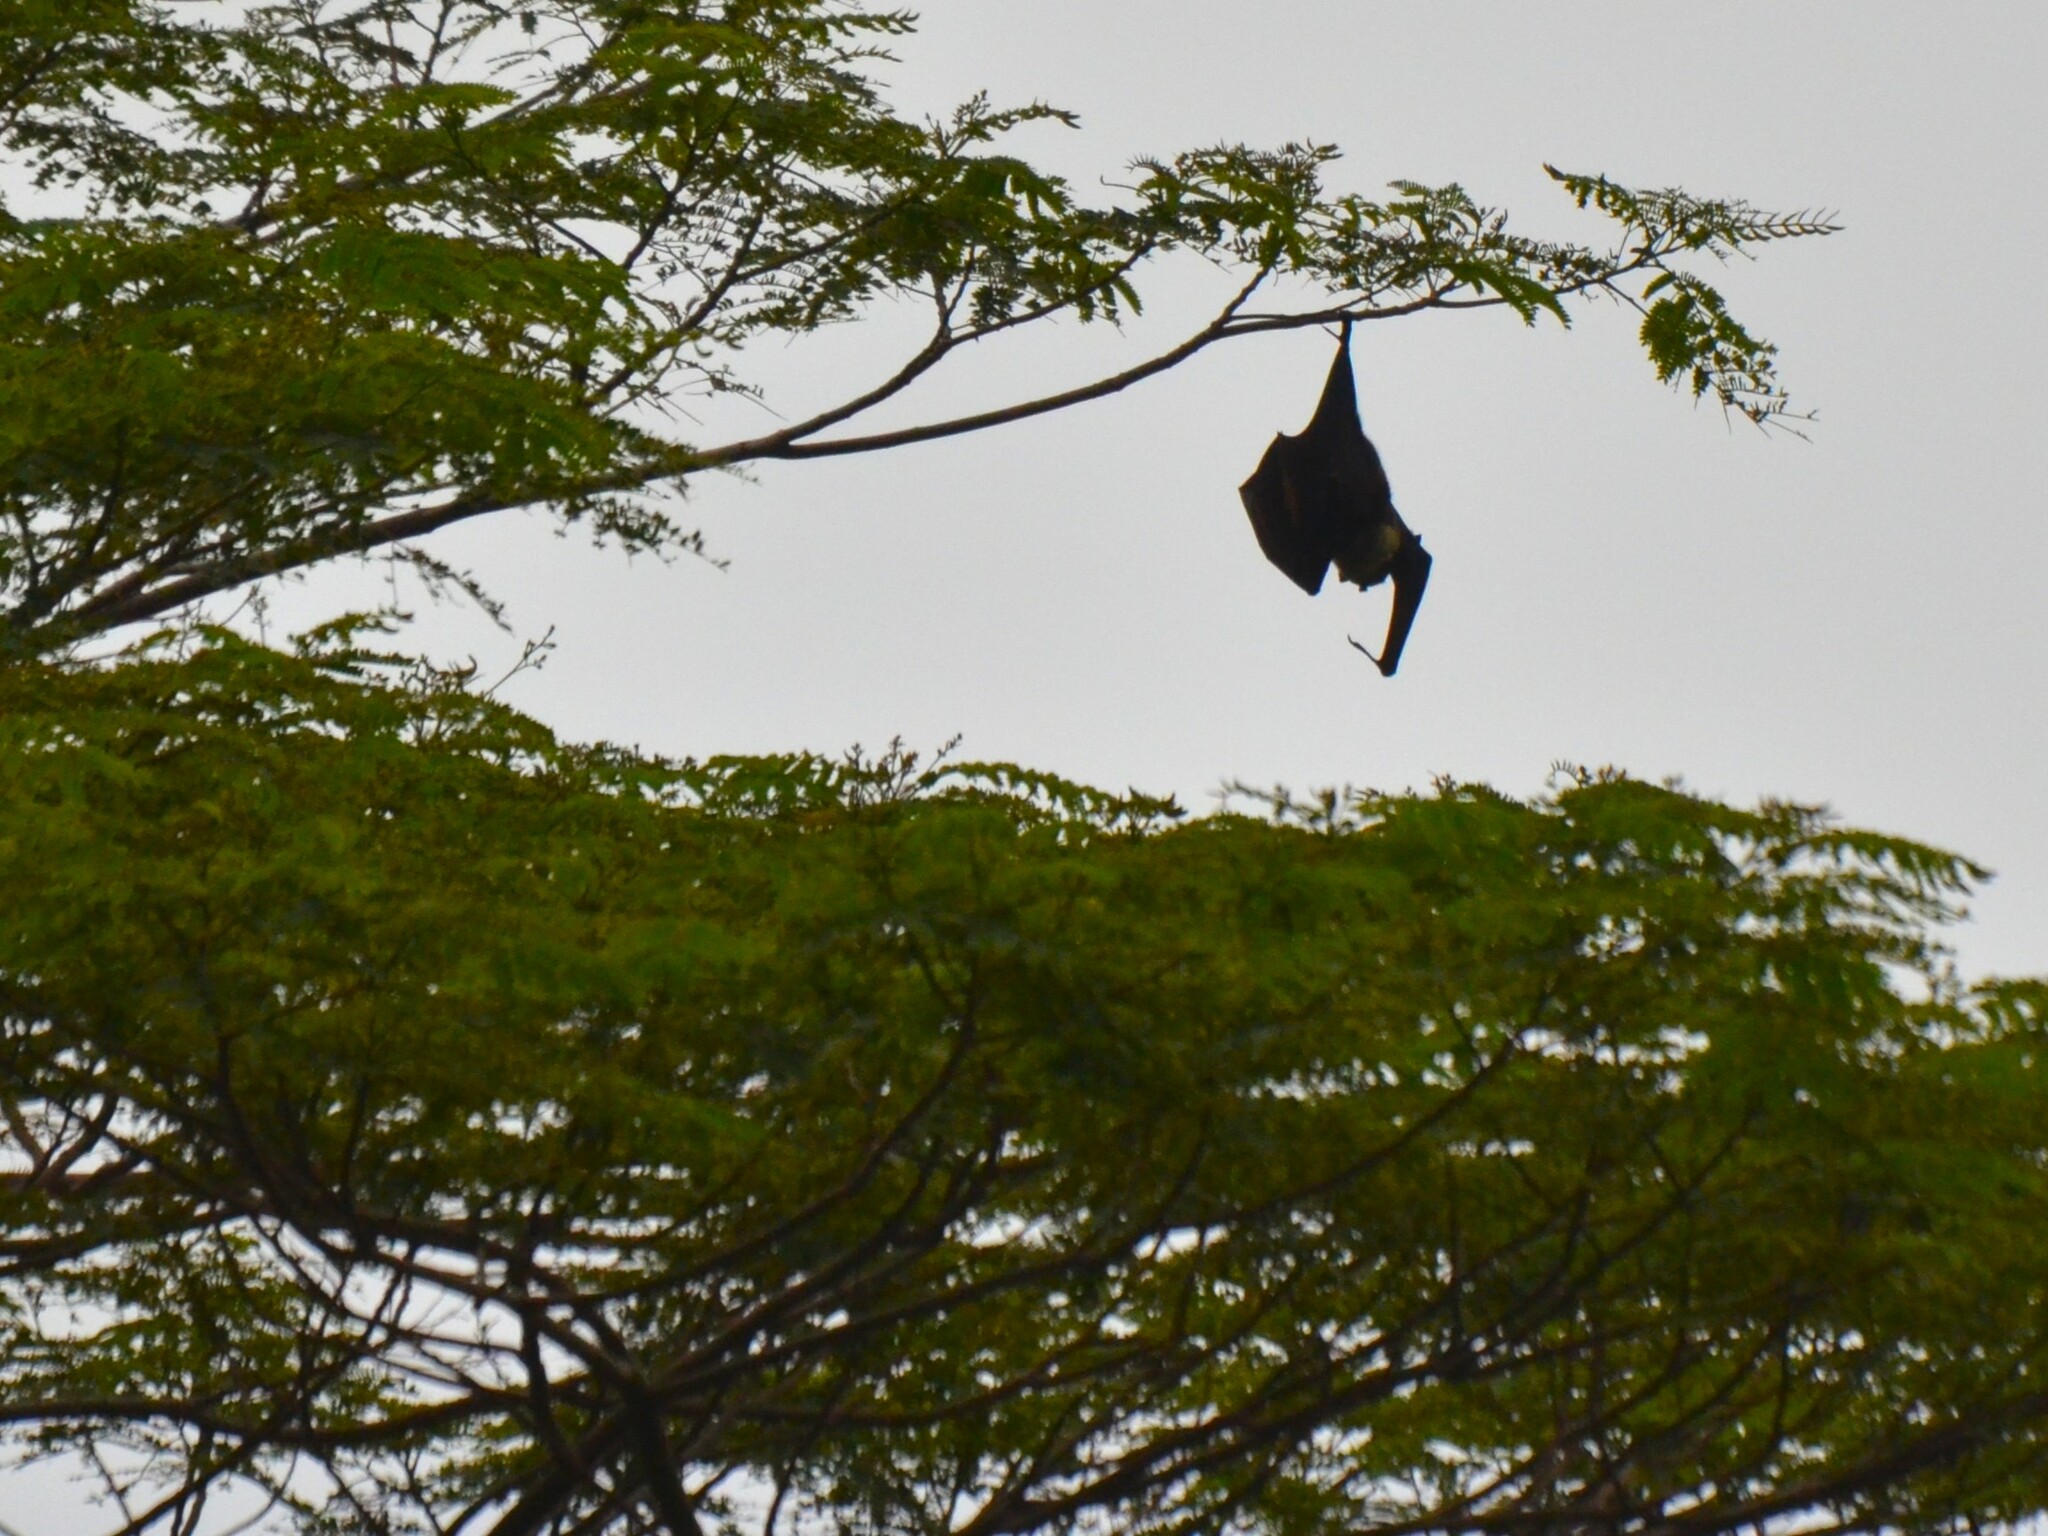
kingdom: Animalia
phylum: Chordata
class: Mammalia
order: Chiroptera
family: Pteropodidae
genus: Pteropus
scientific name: Pteropus tonganus
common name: Pacific flying fox
